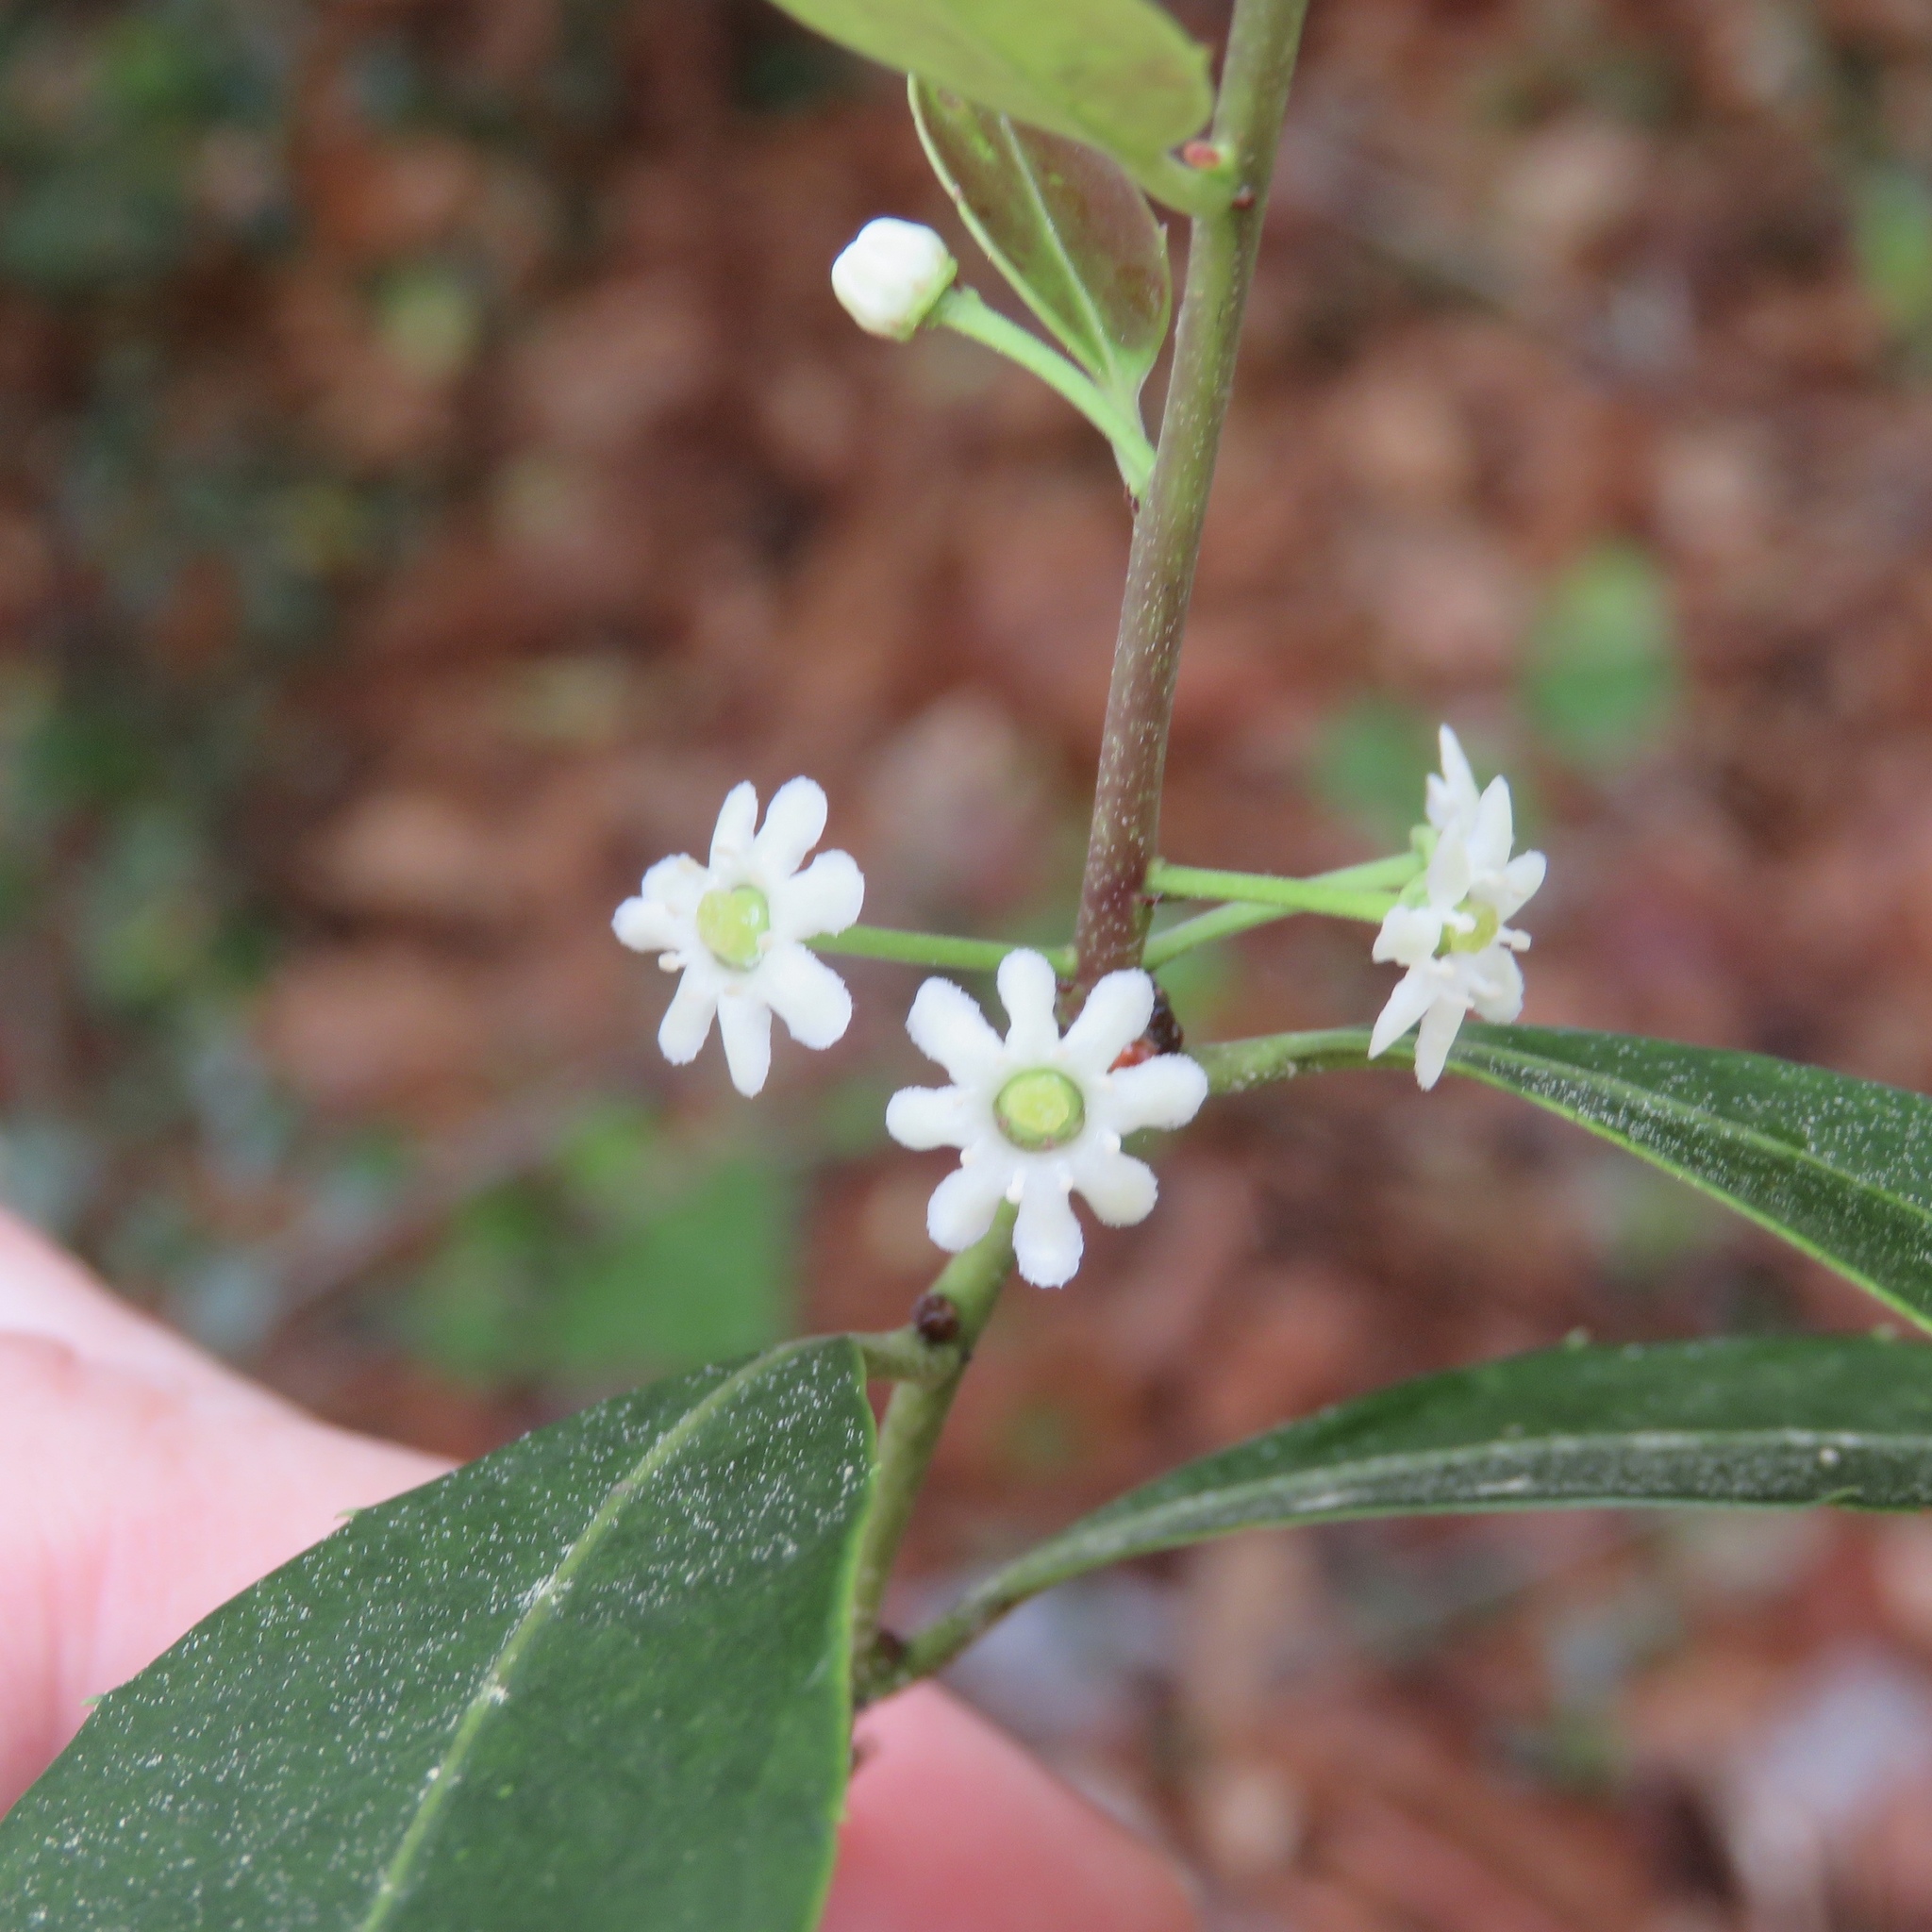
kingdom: Plantae
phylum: Tracheophyta
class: Magnoliopsida
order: Aquifoliales
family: Aquifoliaceae
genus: Ilex
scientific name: Ilex coriacea
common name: Sweet gallberry
